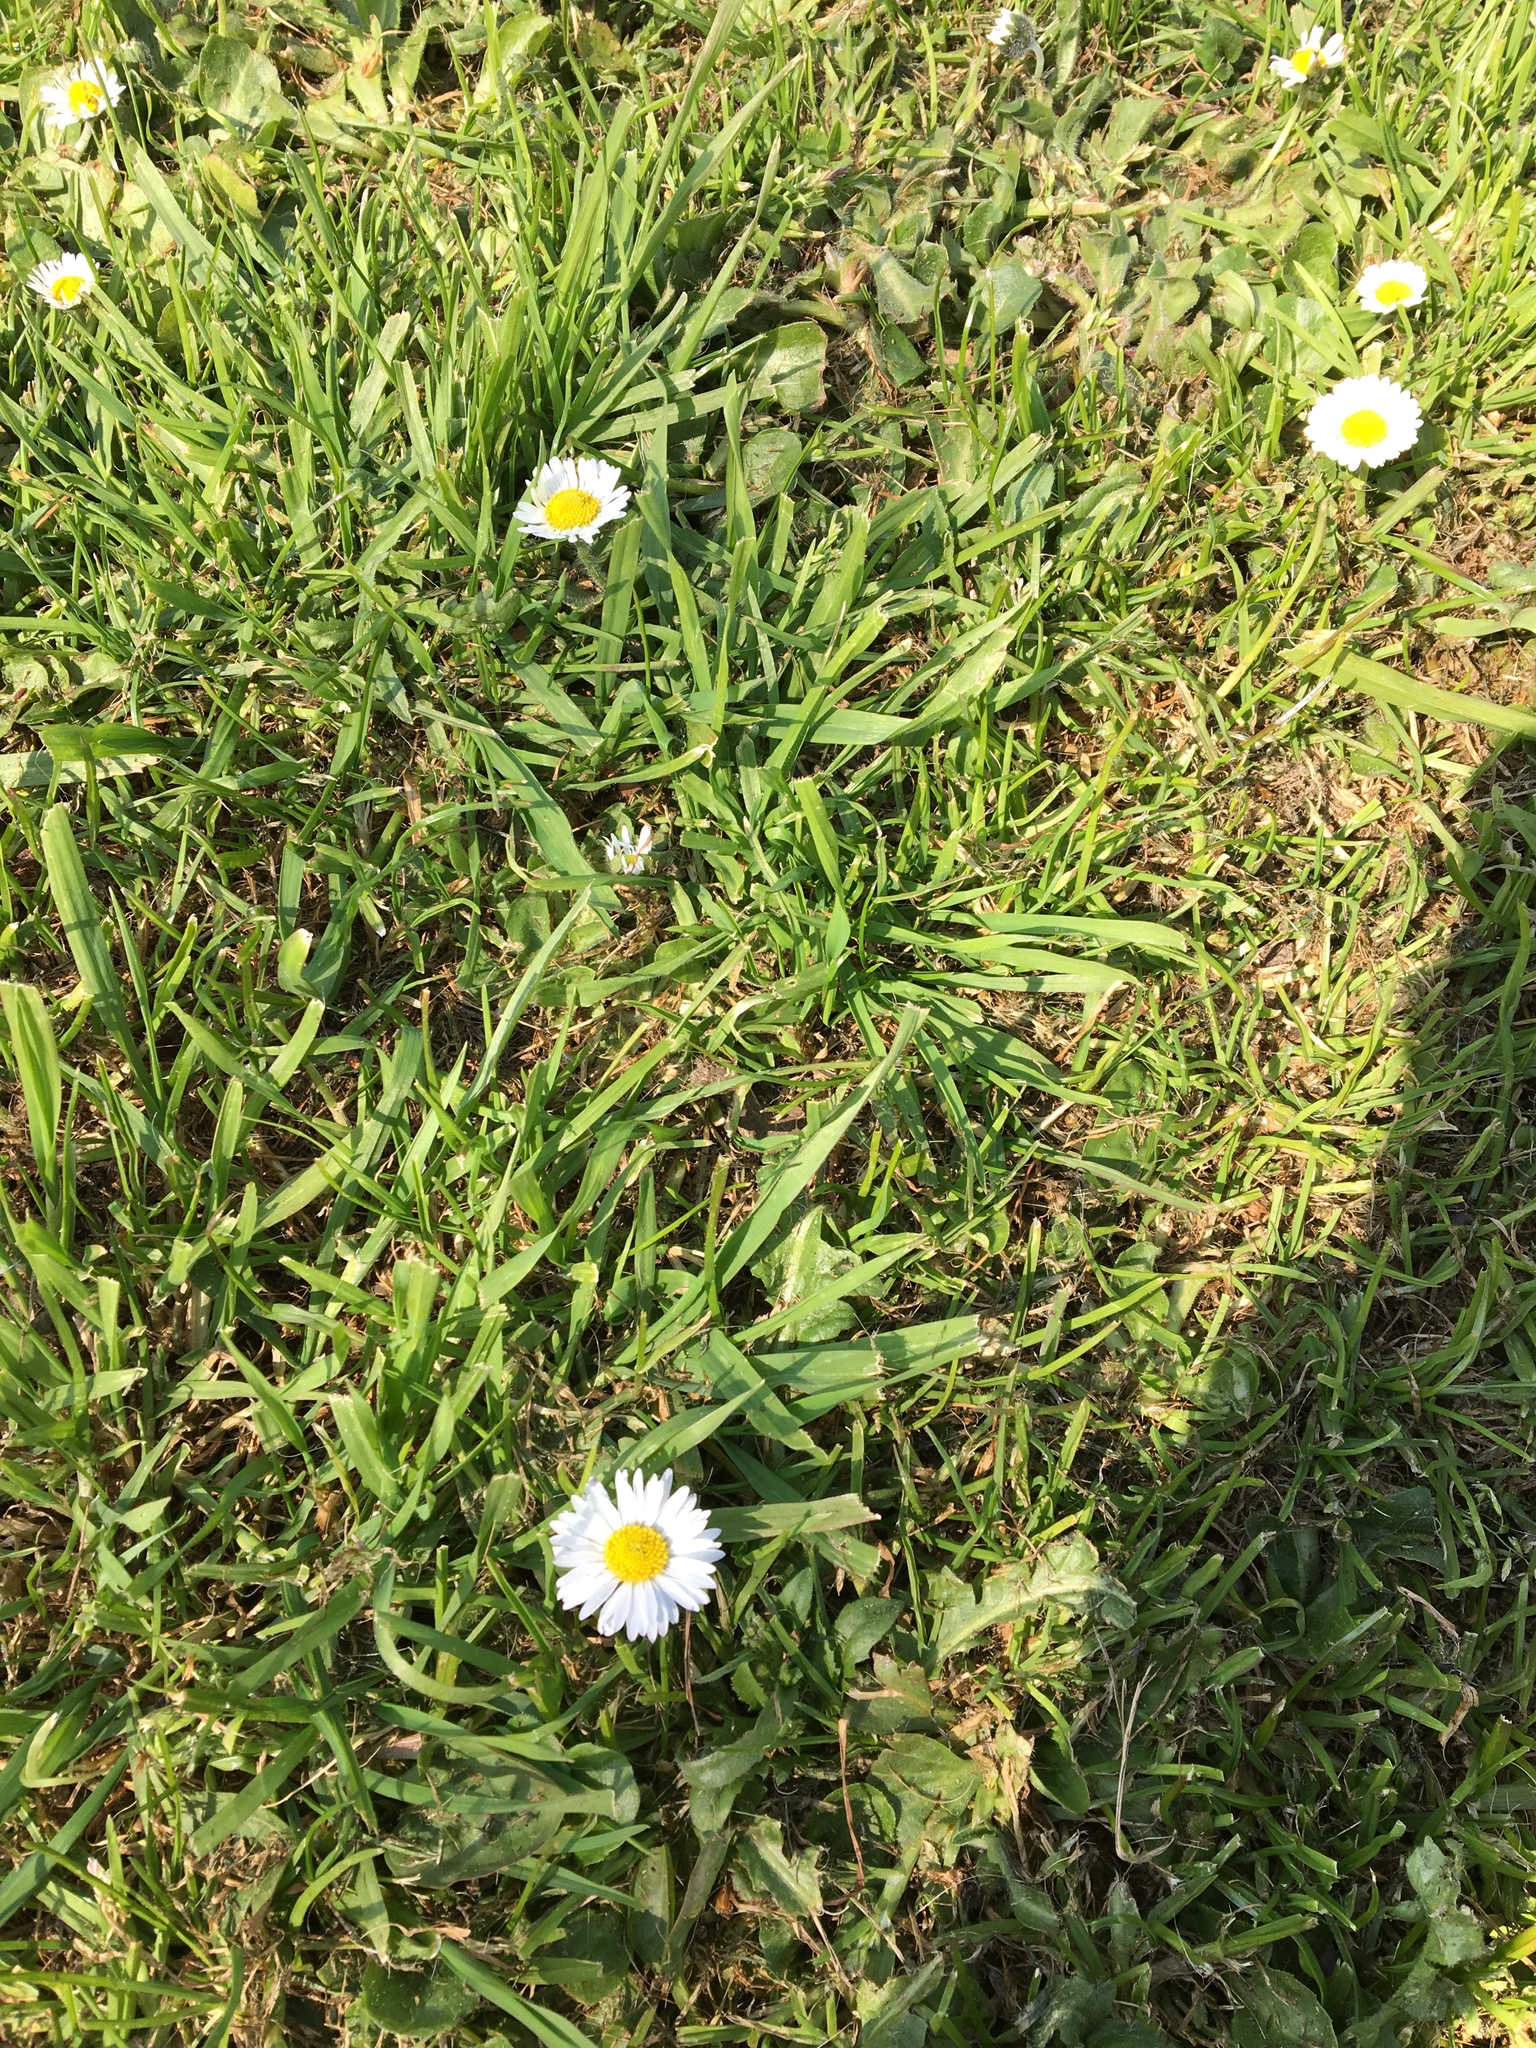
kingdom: Plantae
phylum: Tracheophyta
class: Magnoliopsida
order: Asterales
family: Asteraceae
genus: Bellis
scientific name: Bellis perennis
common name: Lawndaisy
